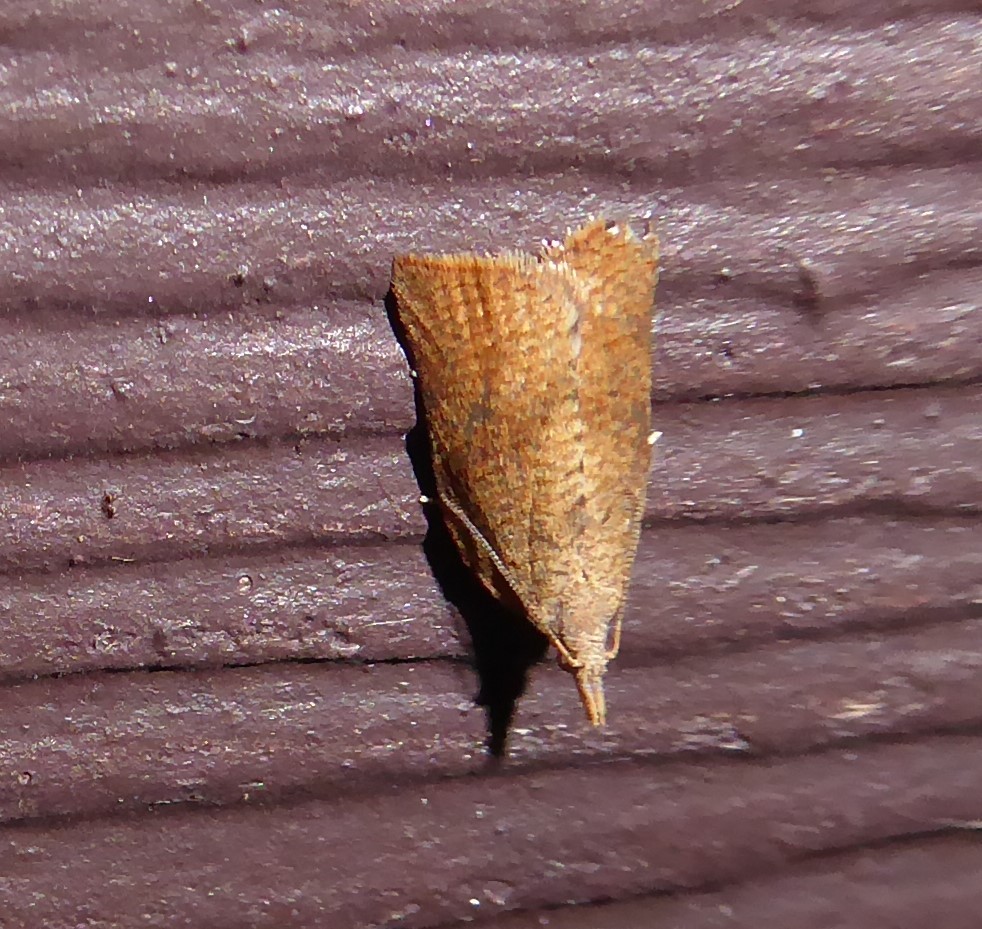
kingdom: Animalia
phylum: Arthropoda
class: Insecta
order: Lepidoptera
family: Tortricidae
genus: Catamacta
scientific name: Catamacta gavisana
